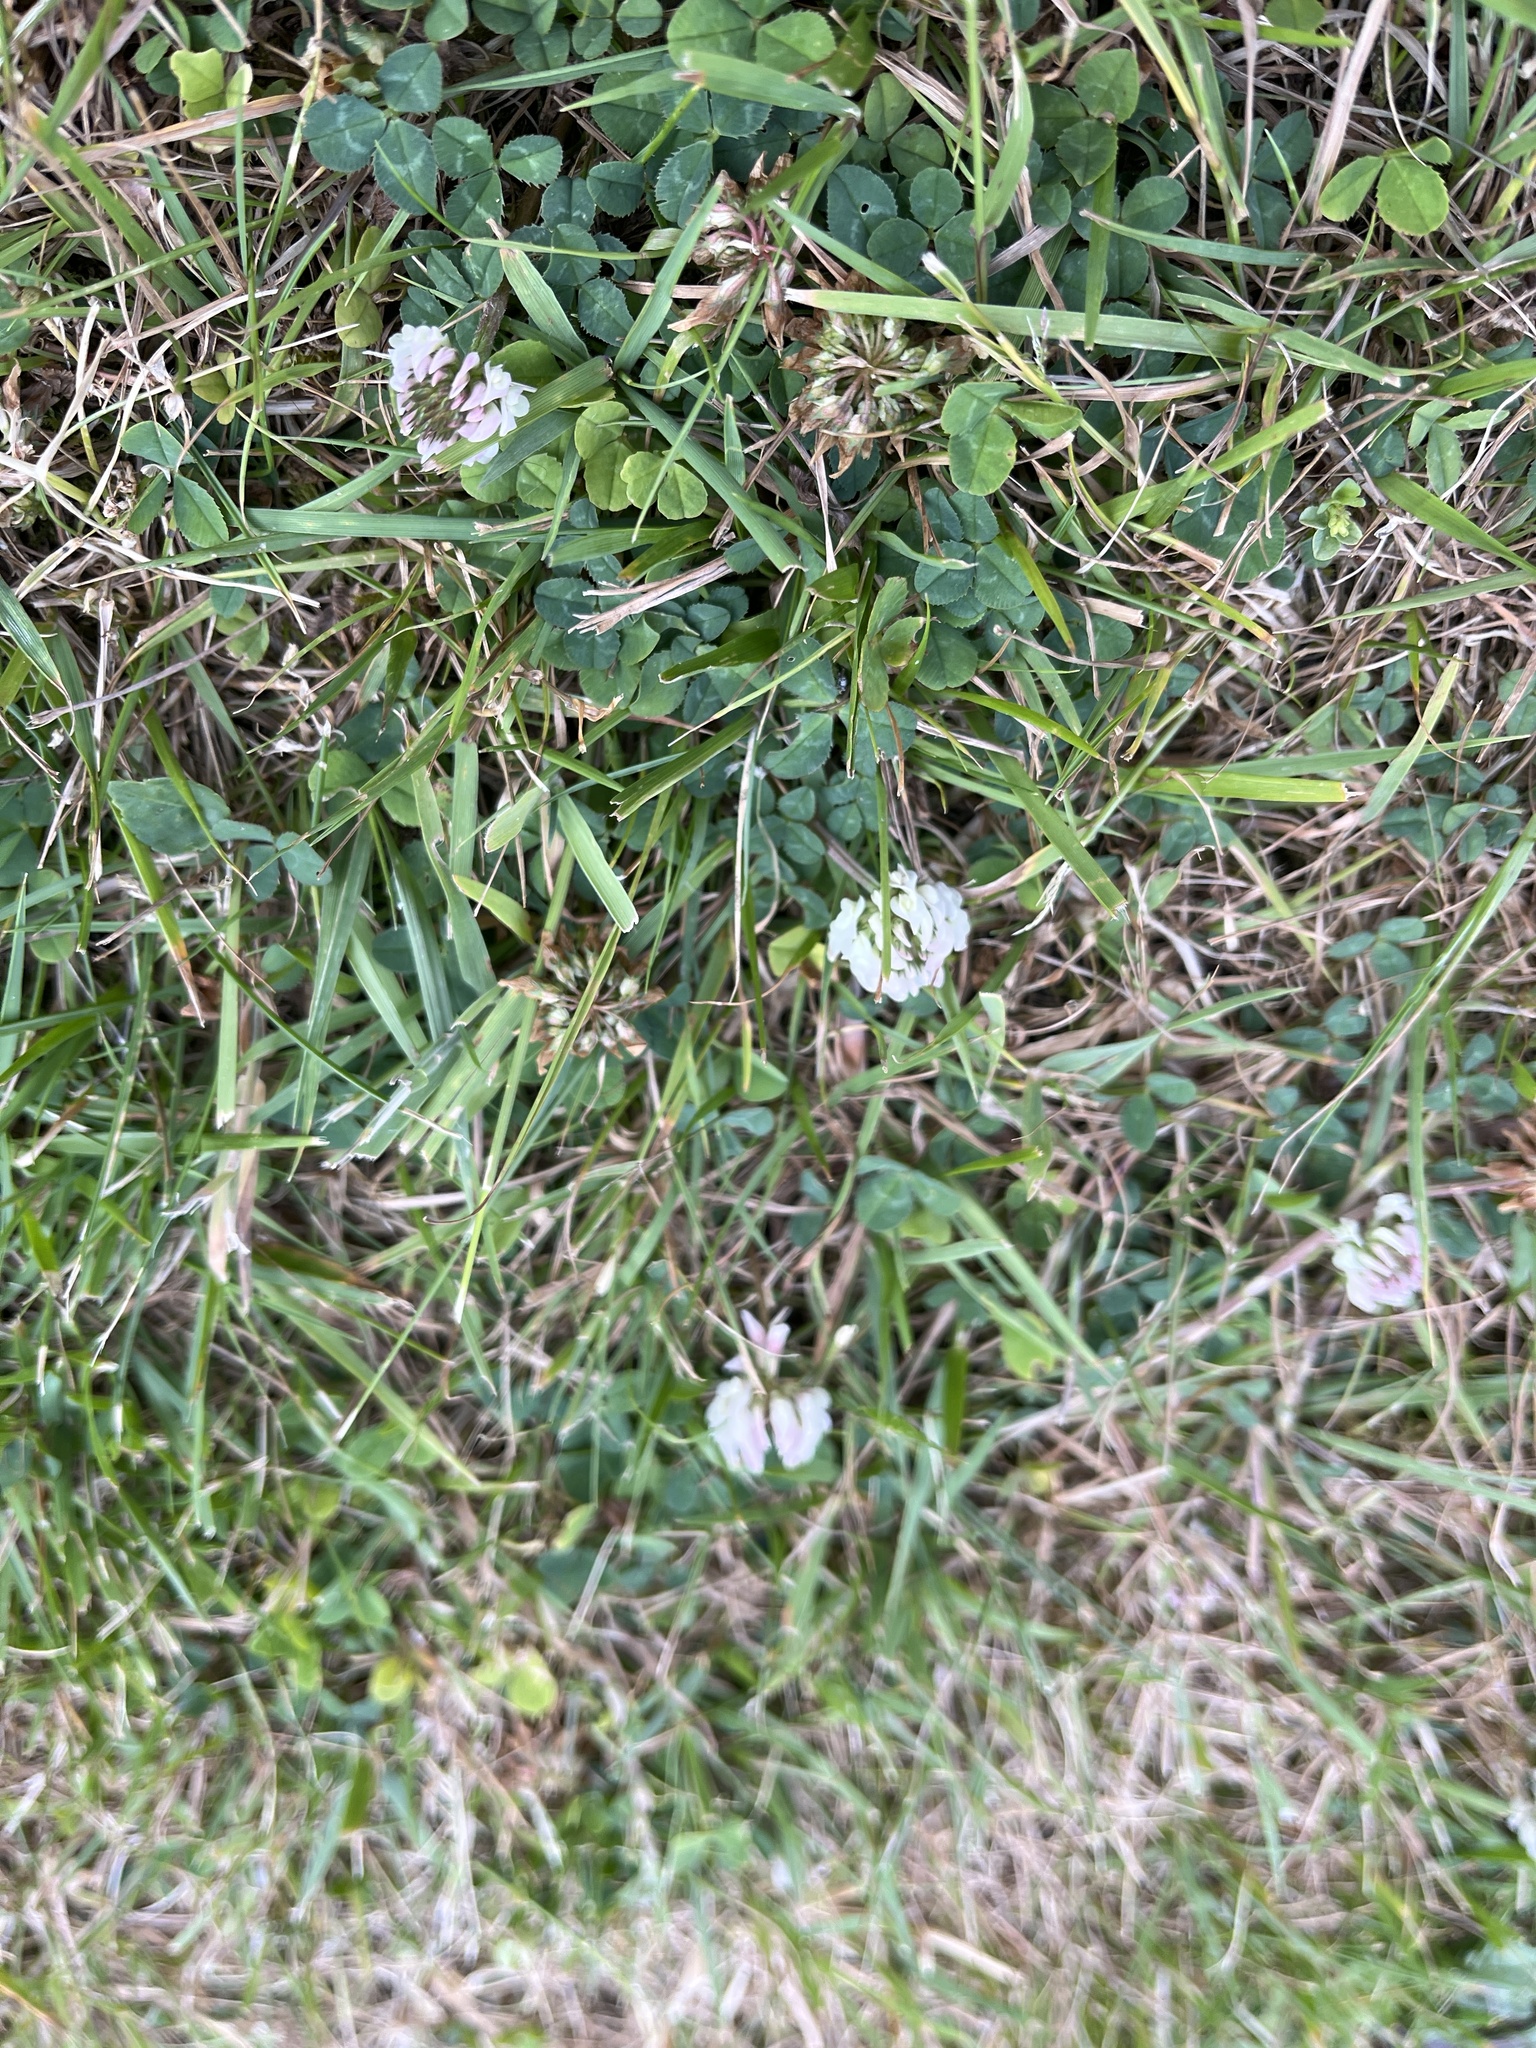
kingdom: Plantae
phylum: Tracheophyta
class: Magnoliopsida
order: Fabales
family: Fabaceae
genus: Trifolium
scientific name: Trifolium repens
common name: White clover
